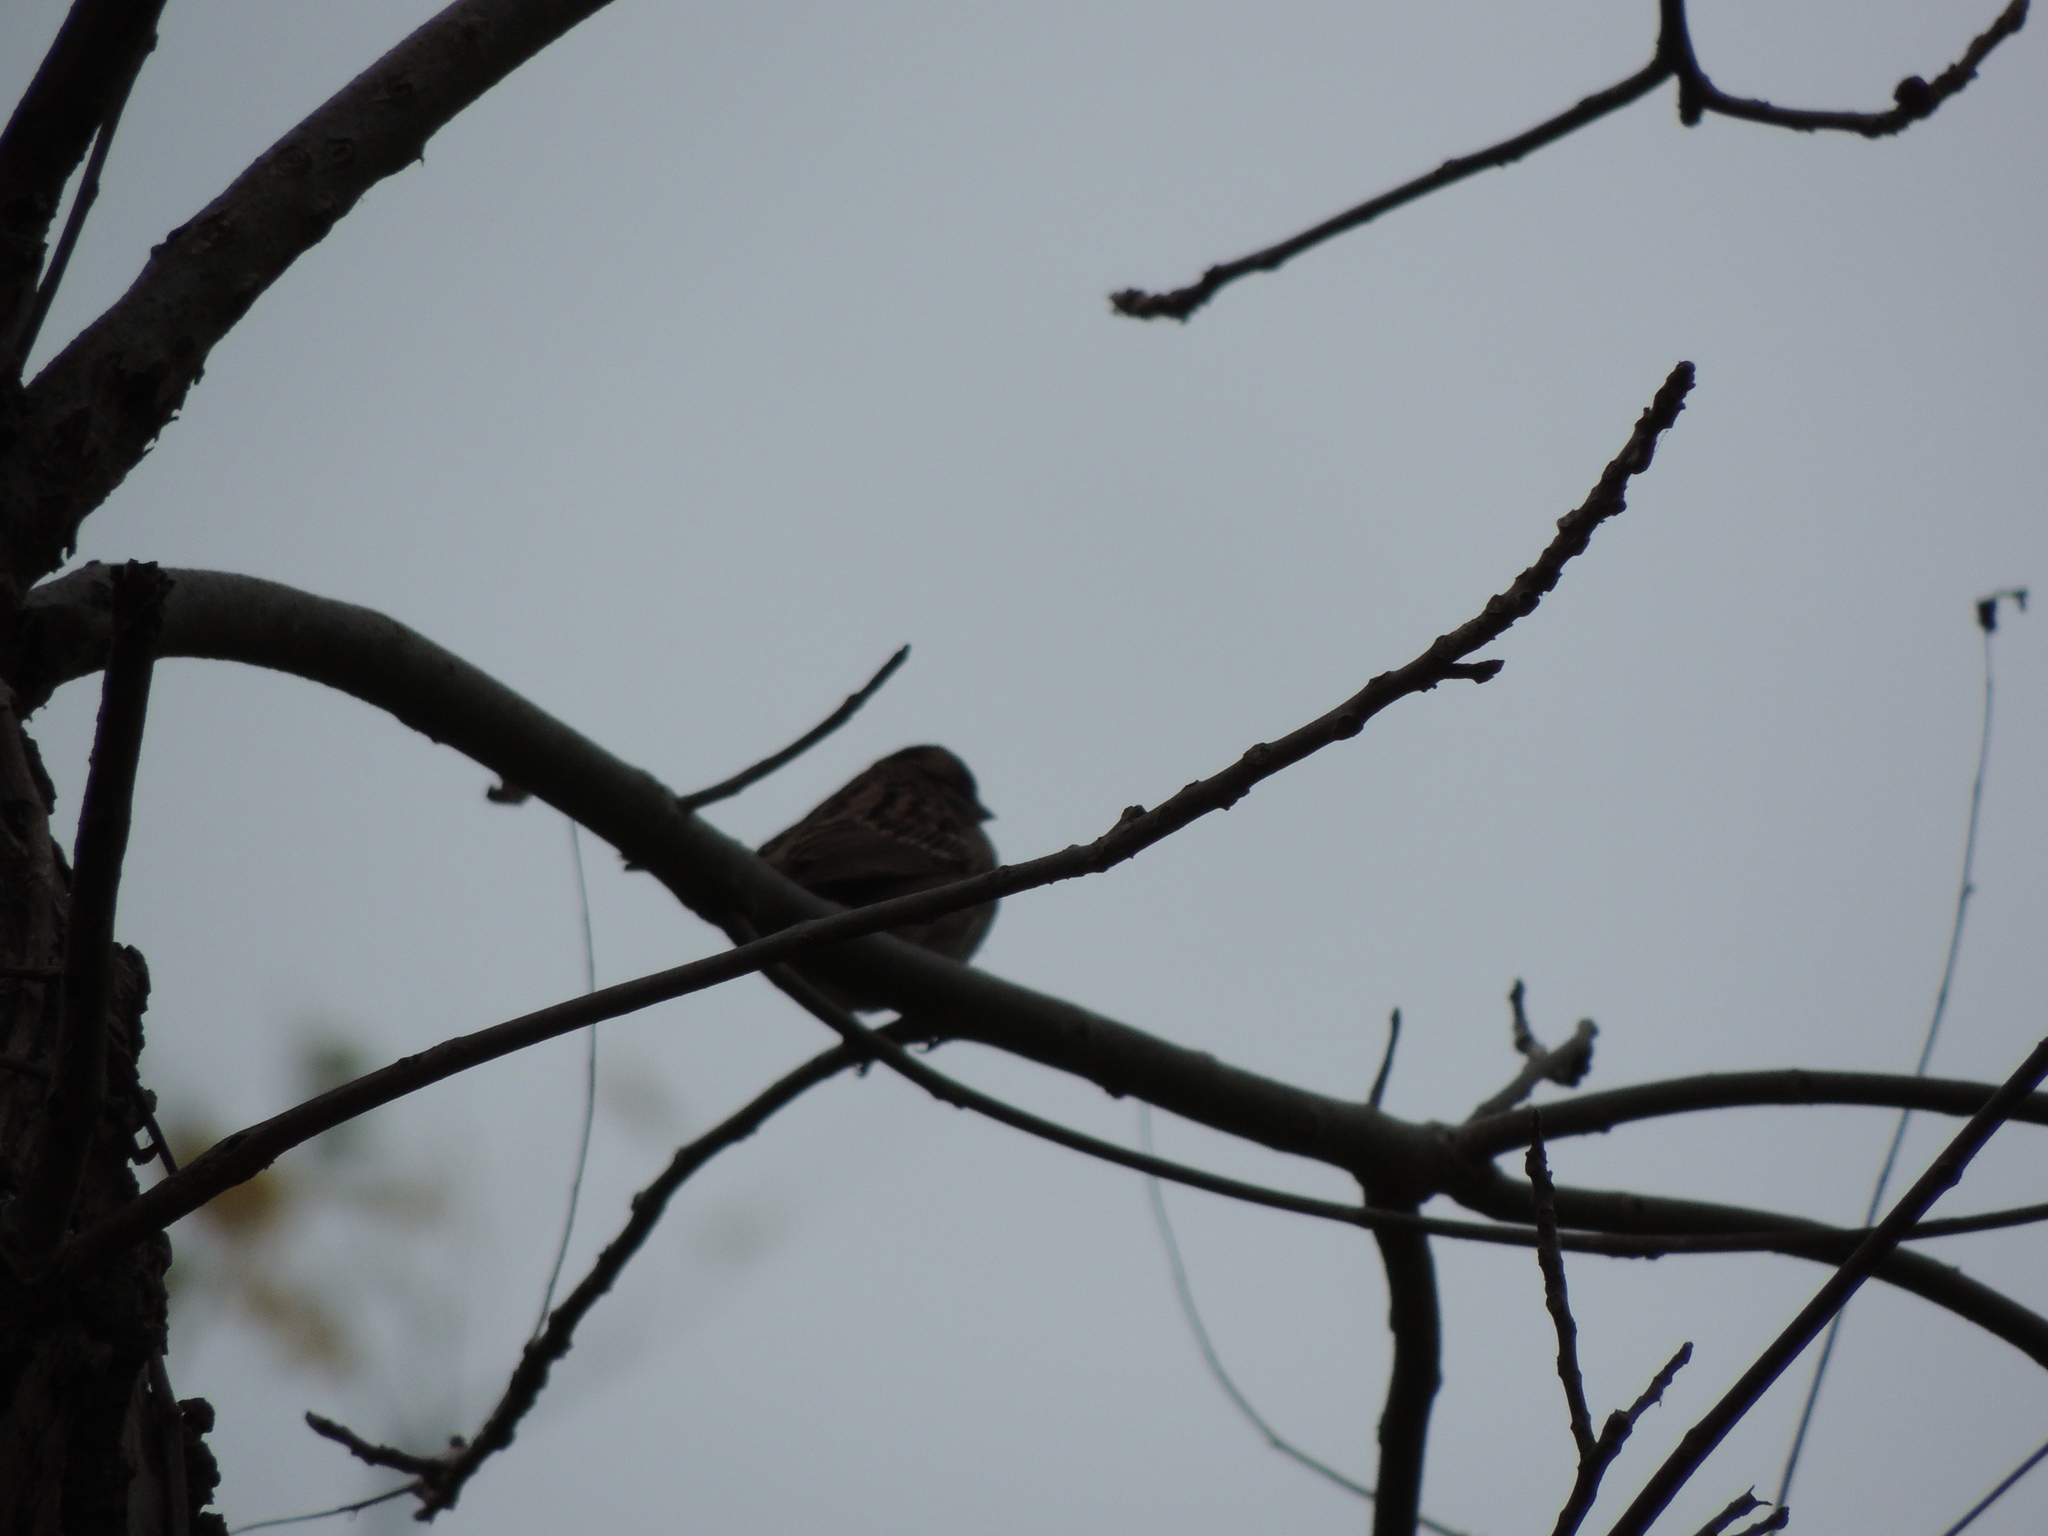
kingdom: Animalia
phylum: Chordata
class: Aves
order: Passeriformes
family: Passerellidae
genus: Zonotrichia
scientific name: Zonotrichia albicollis
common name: White-throated sparrow
